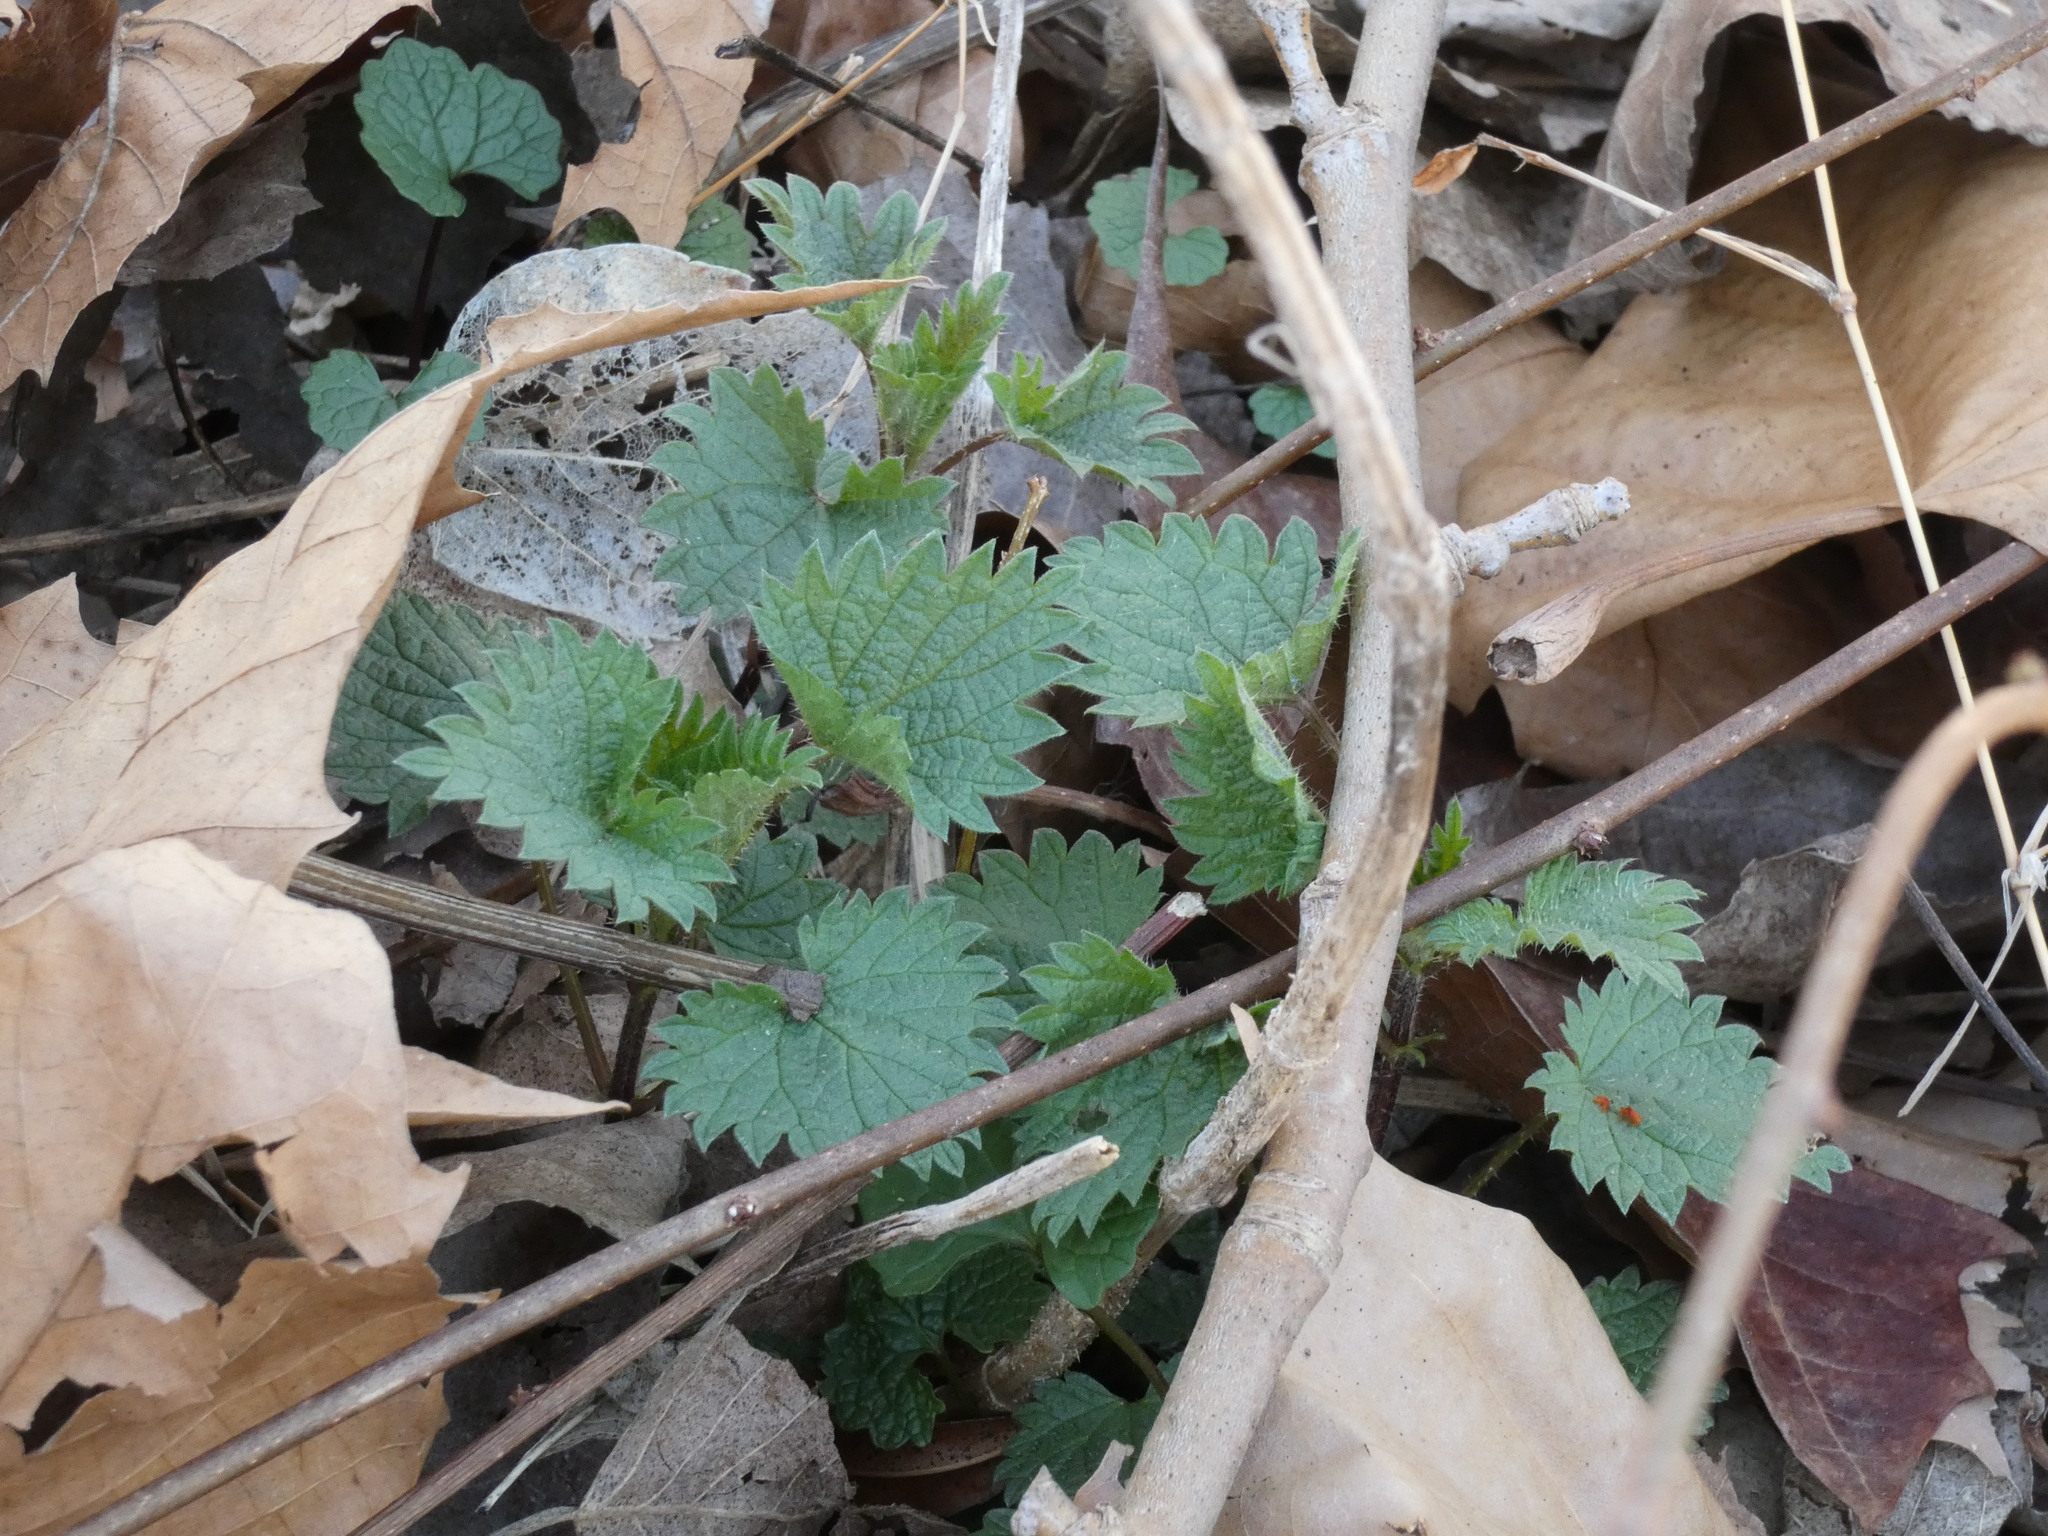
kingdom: Plantae
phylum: Tracheophyta
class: Magnoliopsida
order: Rosales
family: Urticaceae
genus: Urtica
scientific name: Urtica dioica
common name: Common nettle
